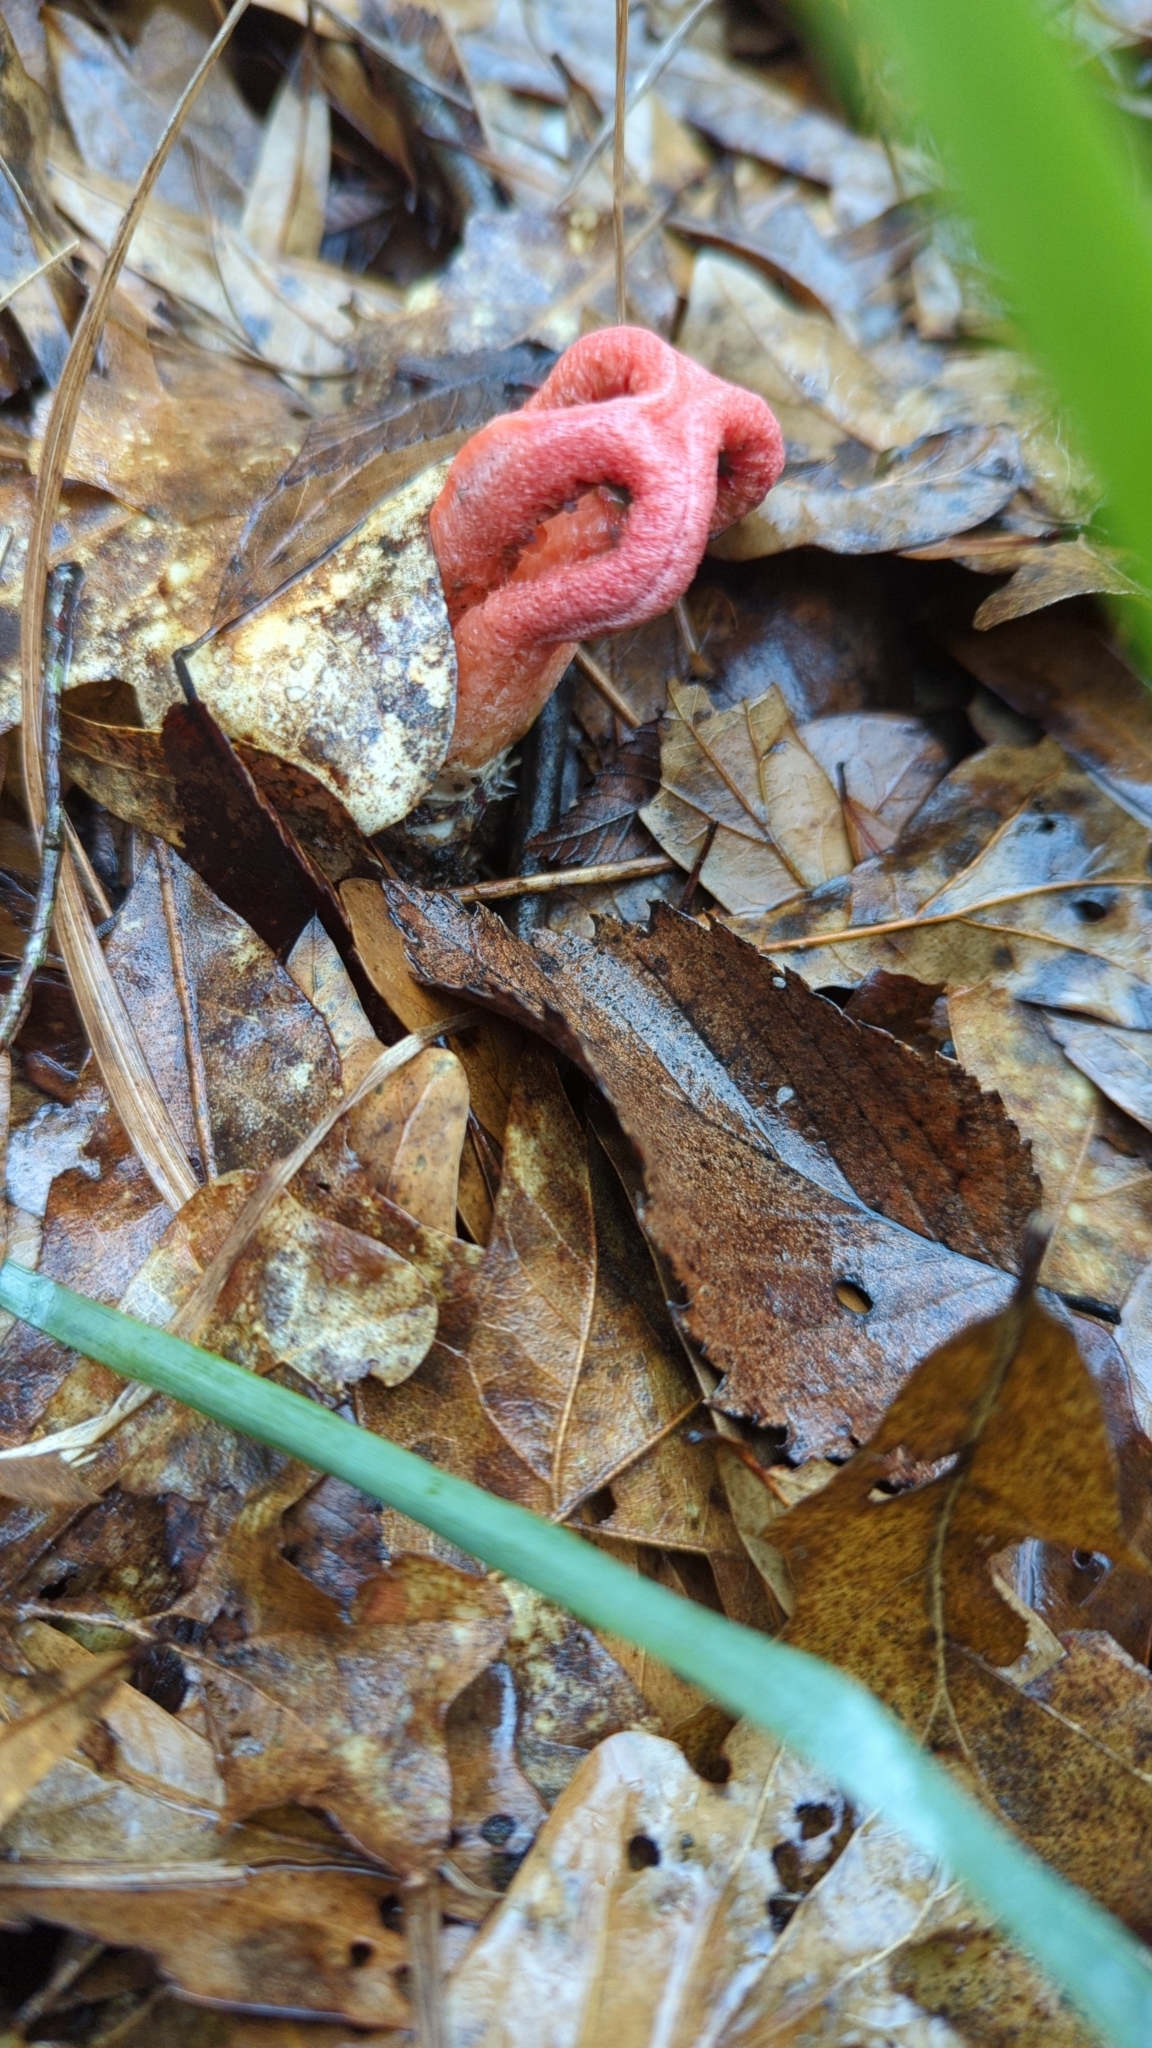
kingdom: Fungi
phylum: Basidiomycota
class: Agaricomycetes
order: Phallales
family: Phallaceae
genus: Clathrus
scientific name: Clathrus columnatus
